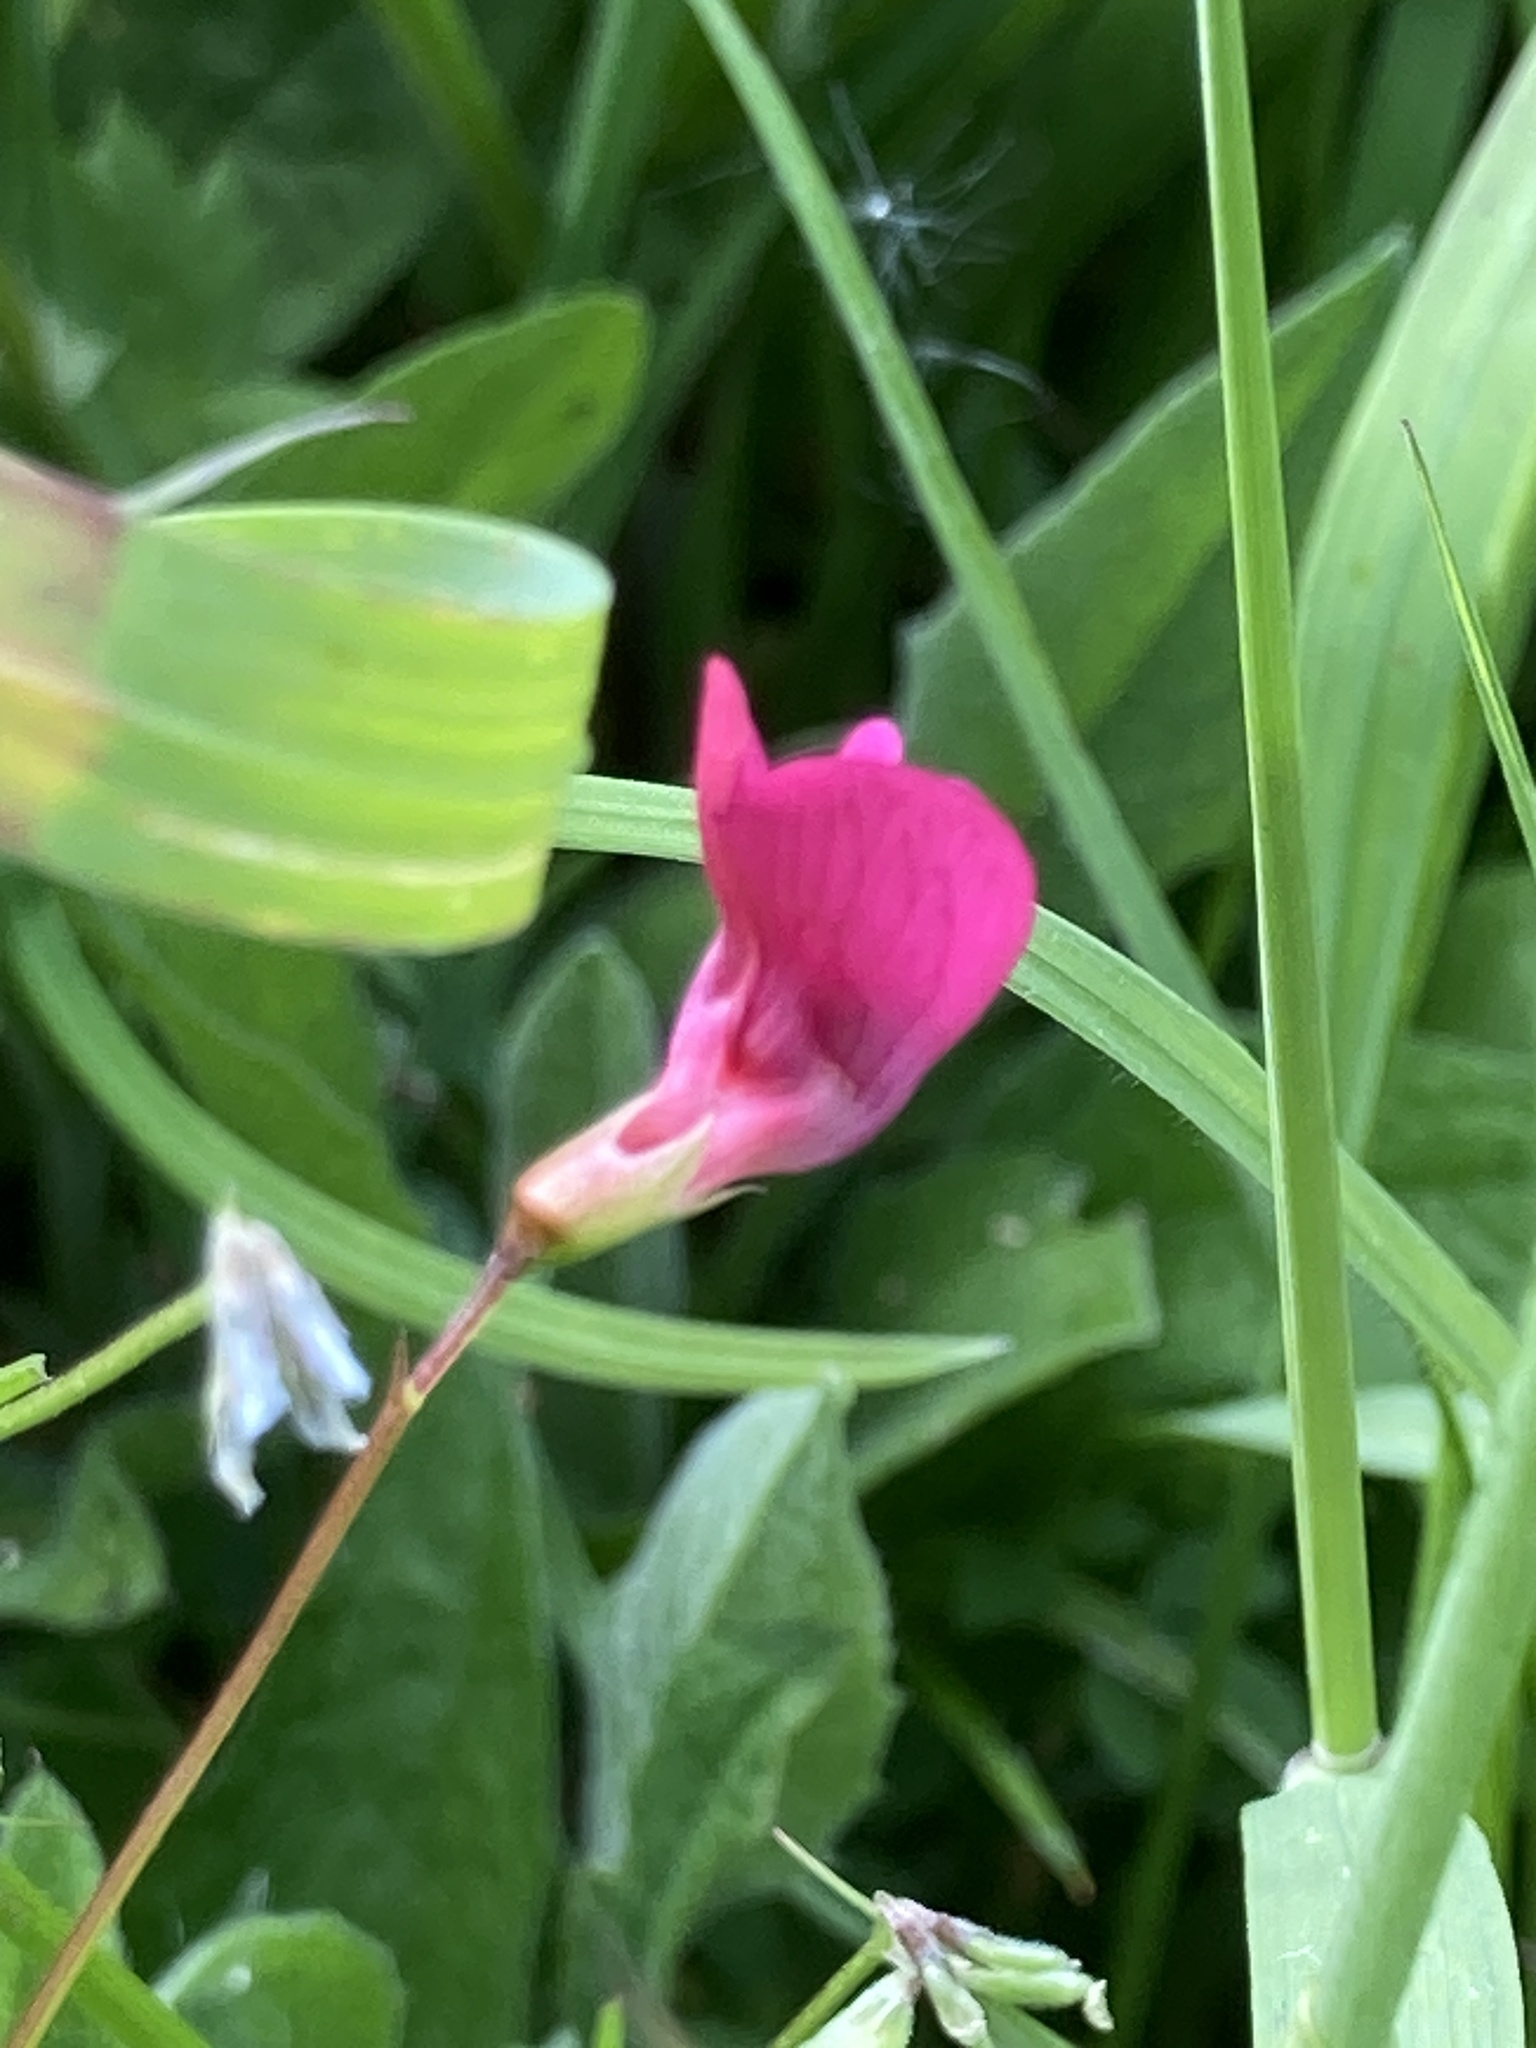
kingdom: Plantae
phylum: Tracheophyta
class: Magnoliopsida
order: Fabales
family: Fabaceae
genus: Lathyrus
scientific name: Lathyrus nissolia
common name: Grass vetchling
